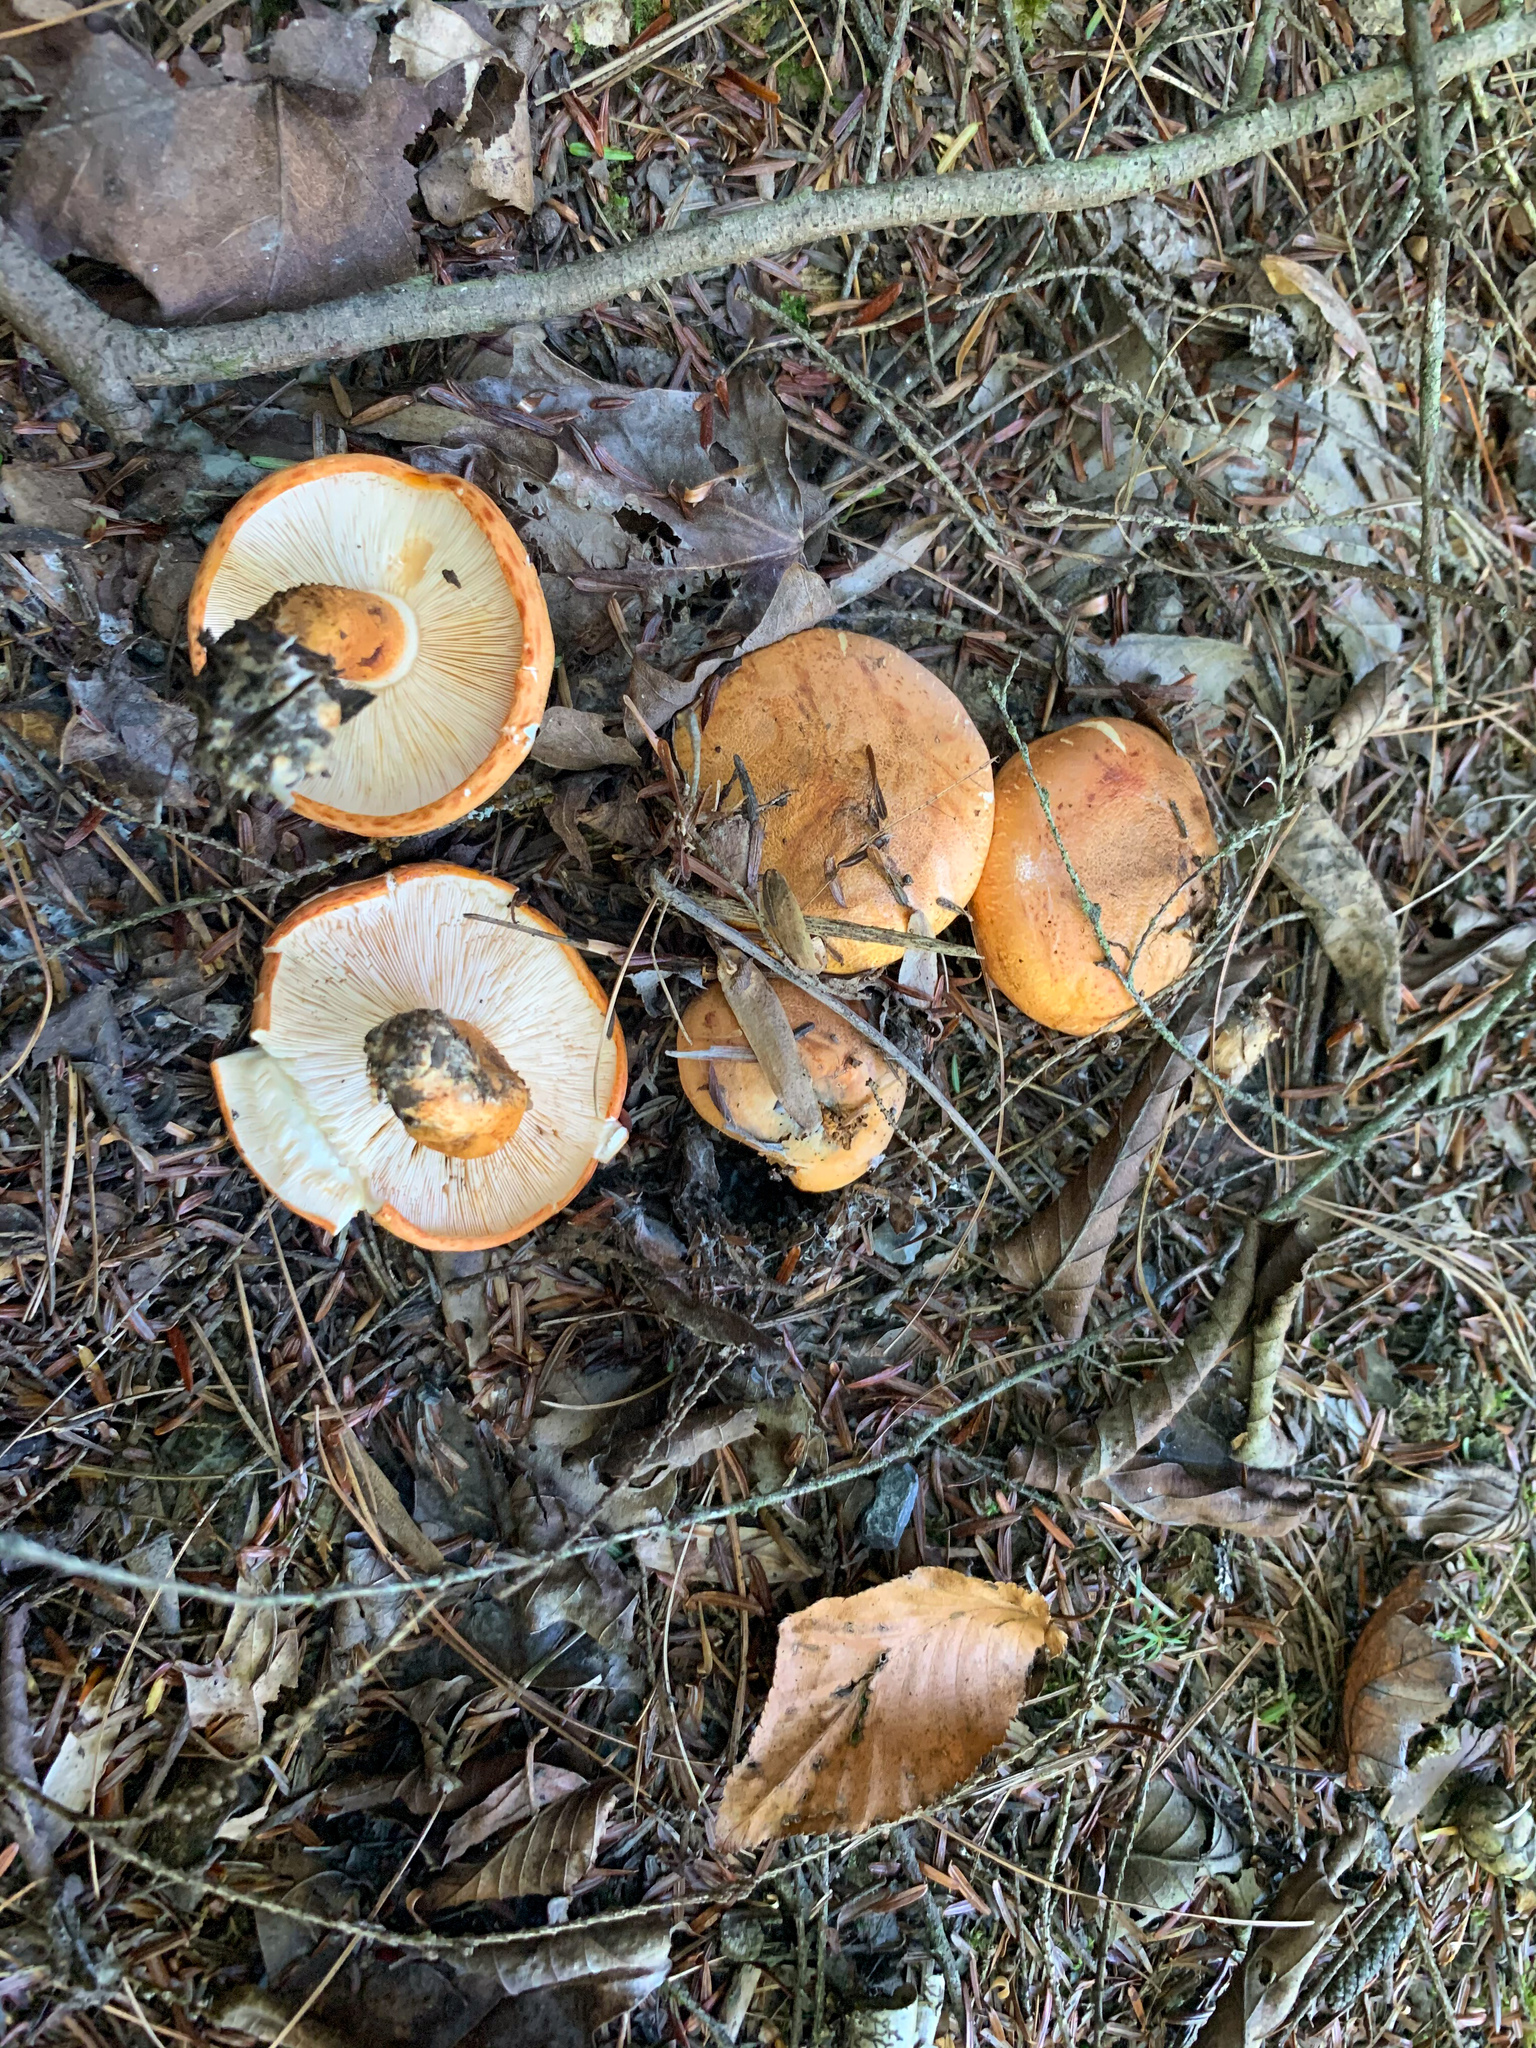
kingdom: Fungi
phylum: Basidiomycota
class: Agaricomycetes
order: Agaricales
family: Tricholomataceae
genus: Tricholoma
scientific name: Tricholoma aurantium
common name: Orange knight
